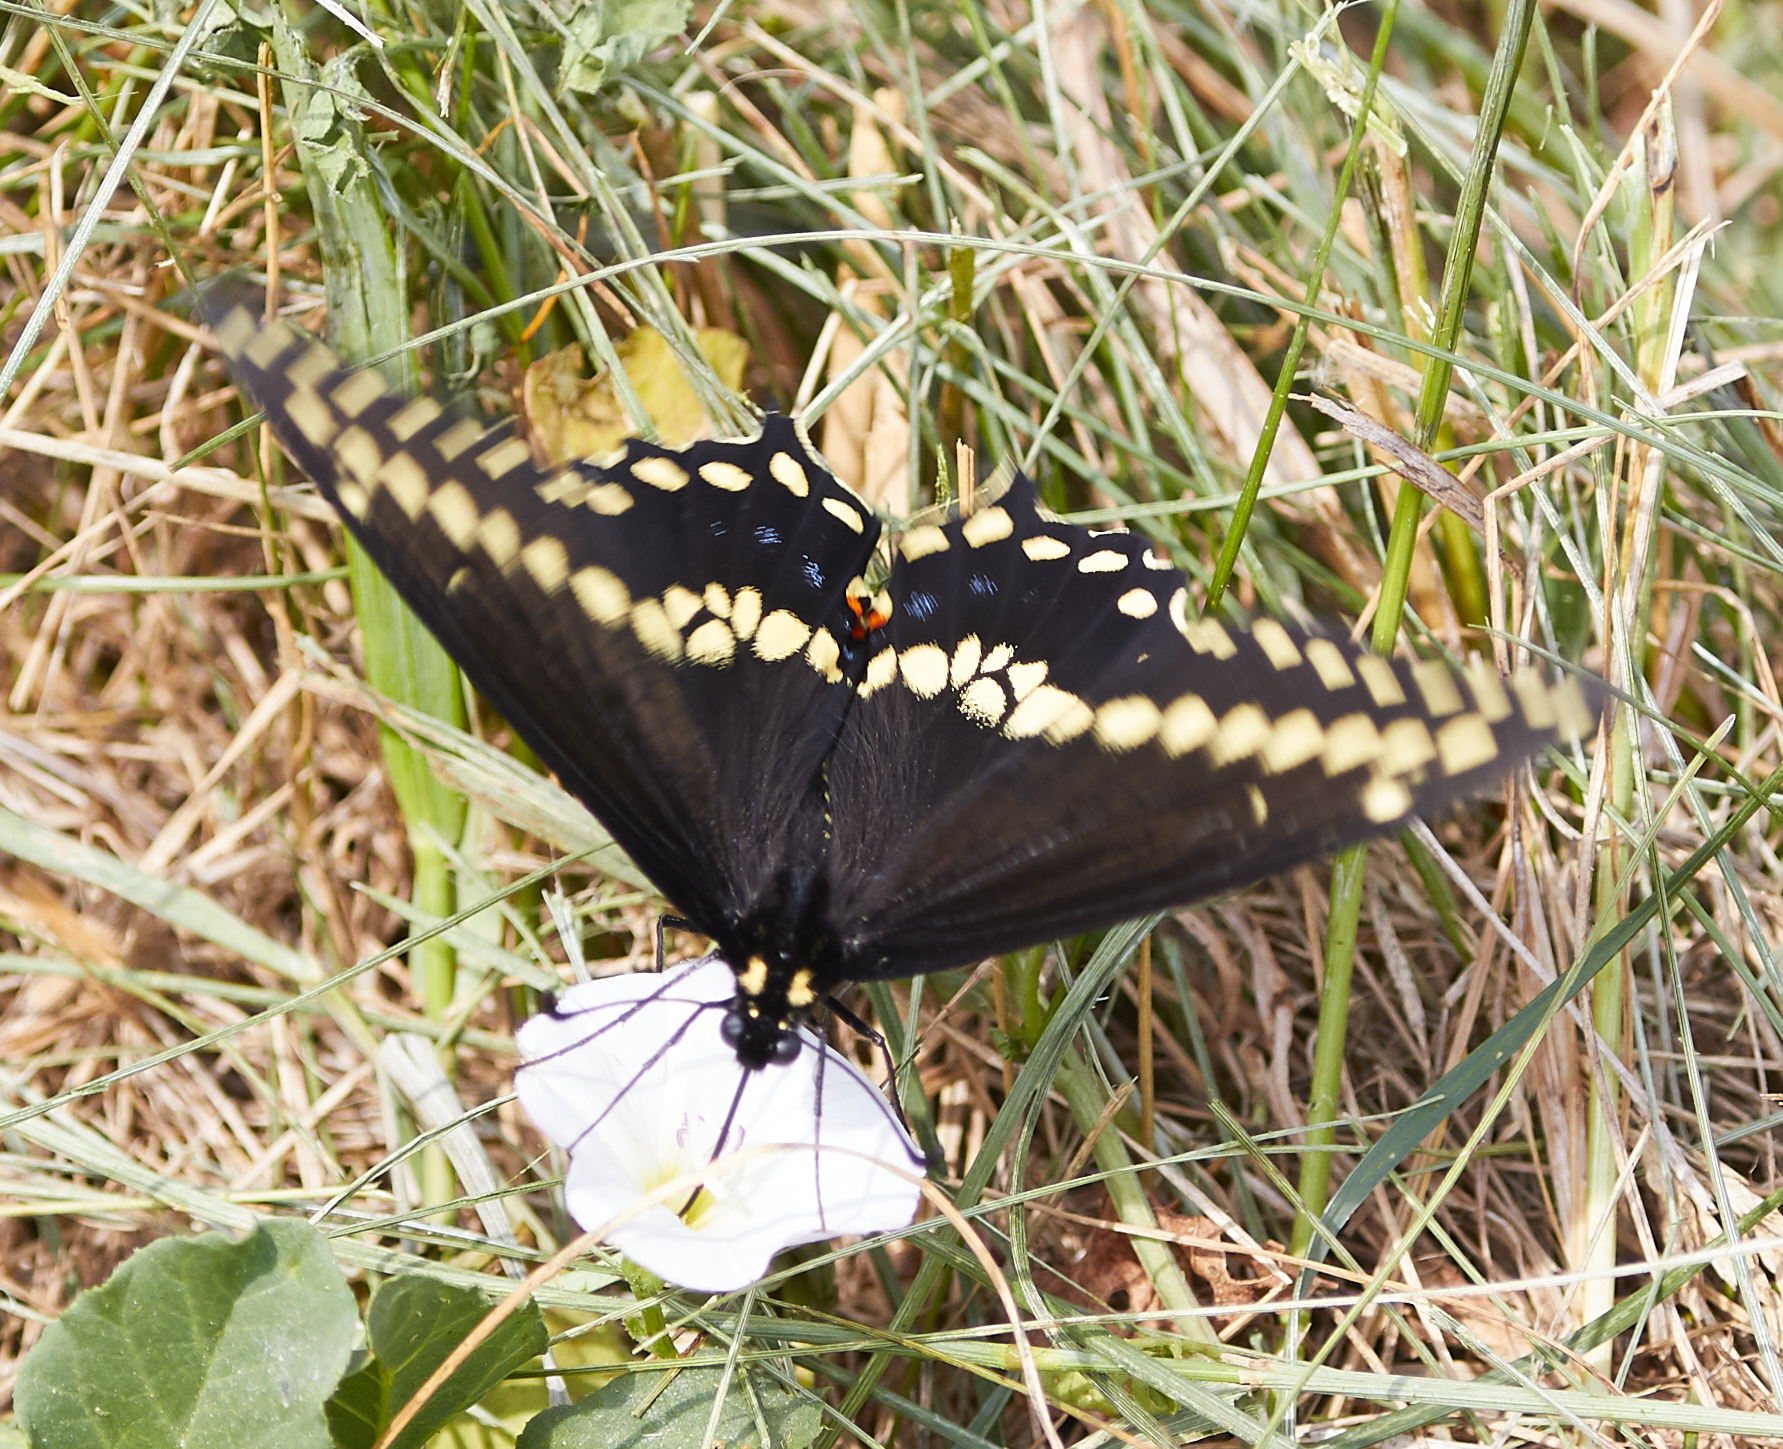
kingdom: Animalia
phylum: Arthropoda
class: Insecta
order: Lepidoptera
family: Papilionidae
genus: Papilio
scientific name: Papilio polyxenes
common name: Black swallowtail
